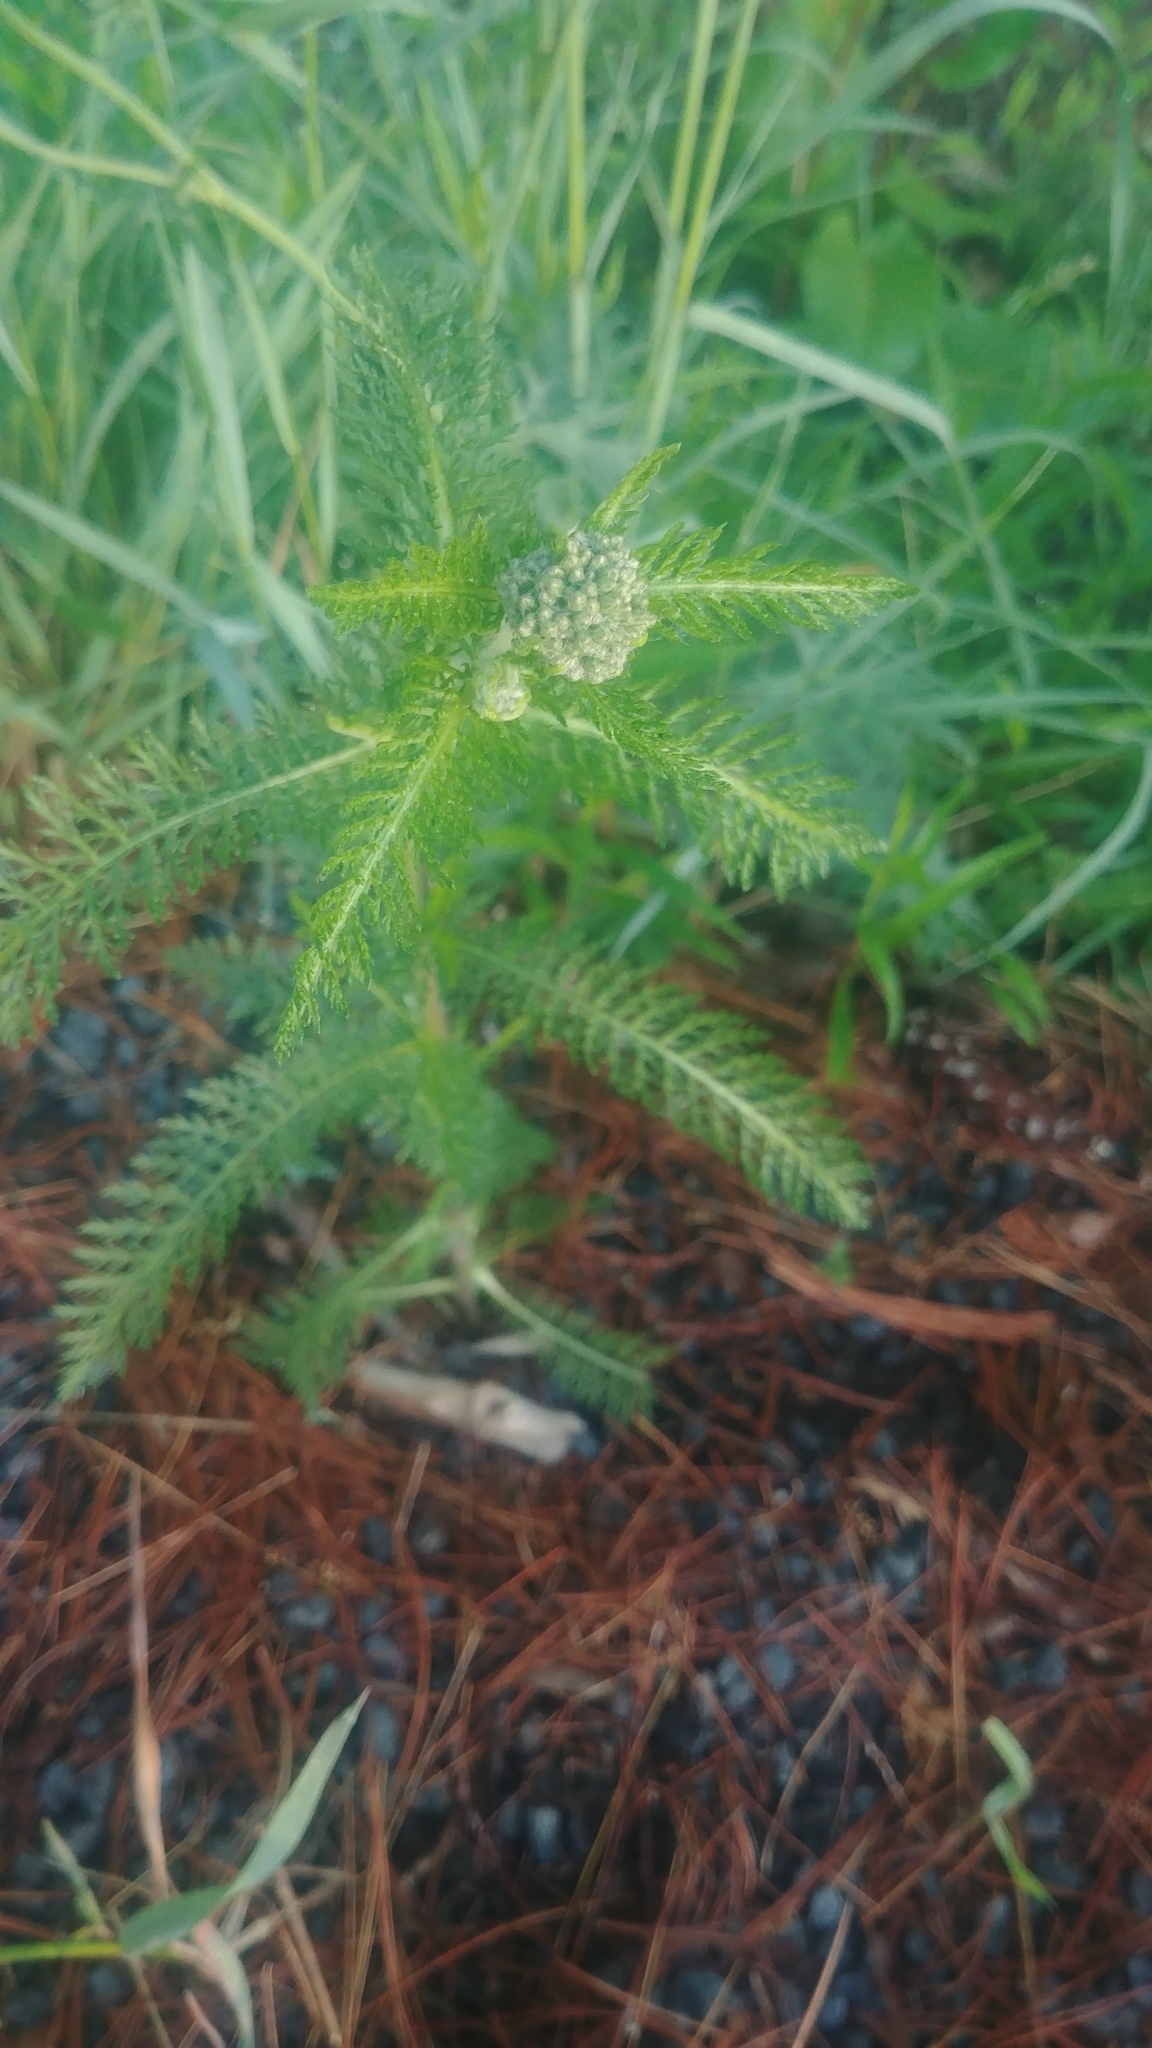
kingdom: Plantae
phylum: Tracheophyta
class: Magnoliopsida
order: Asterales
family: Asteraceae
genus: Achillea
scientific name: Achillea millefolium
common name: Yarrow
